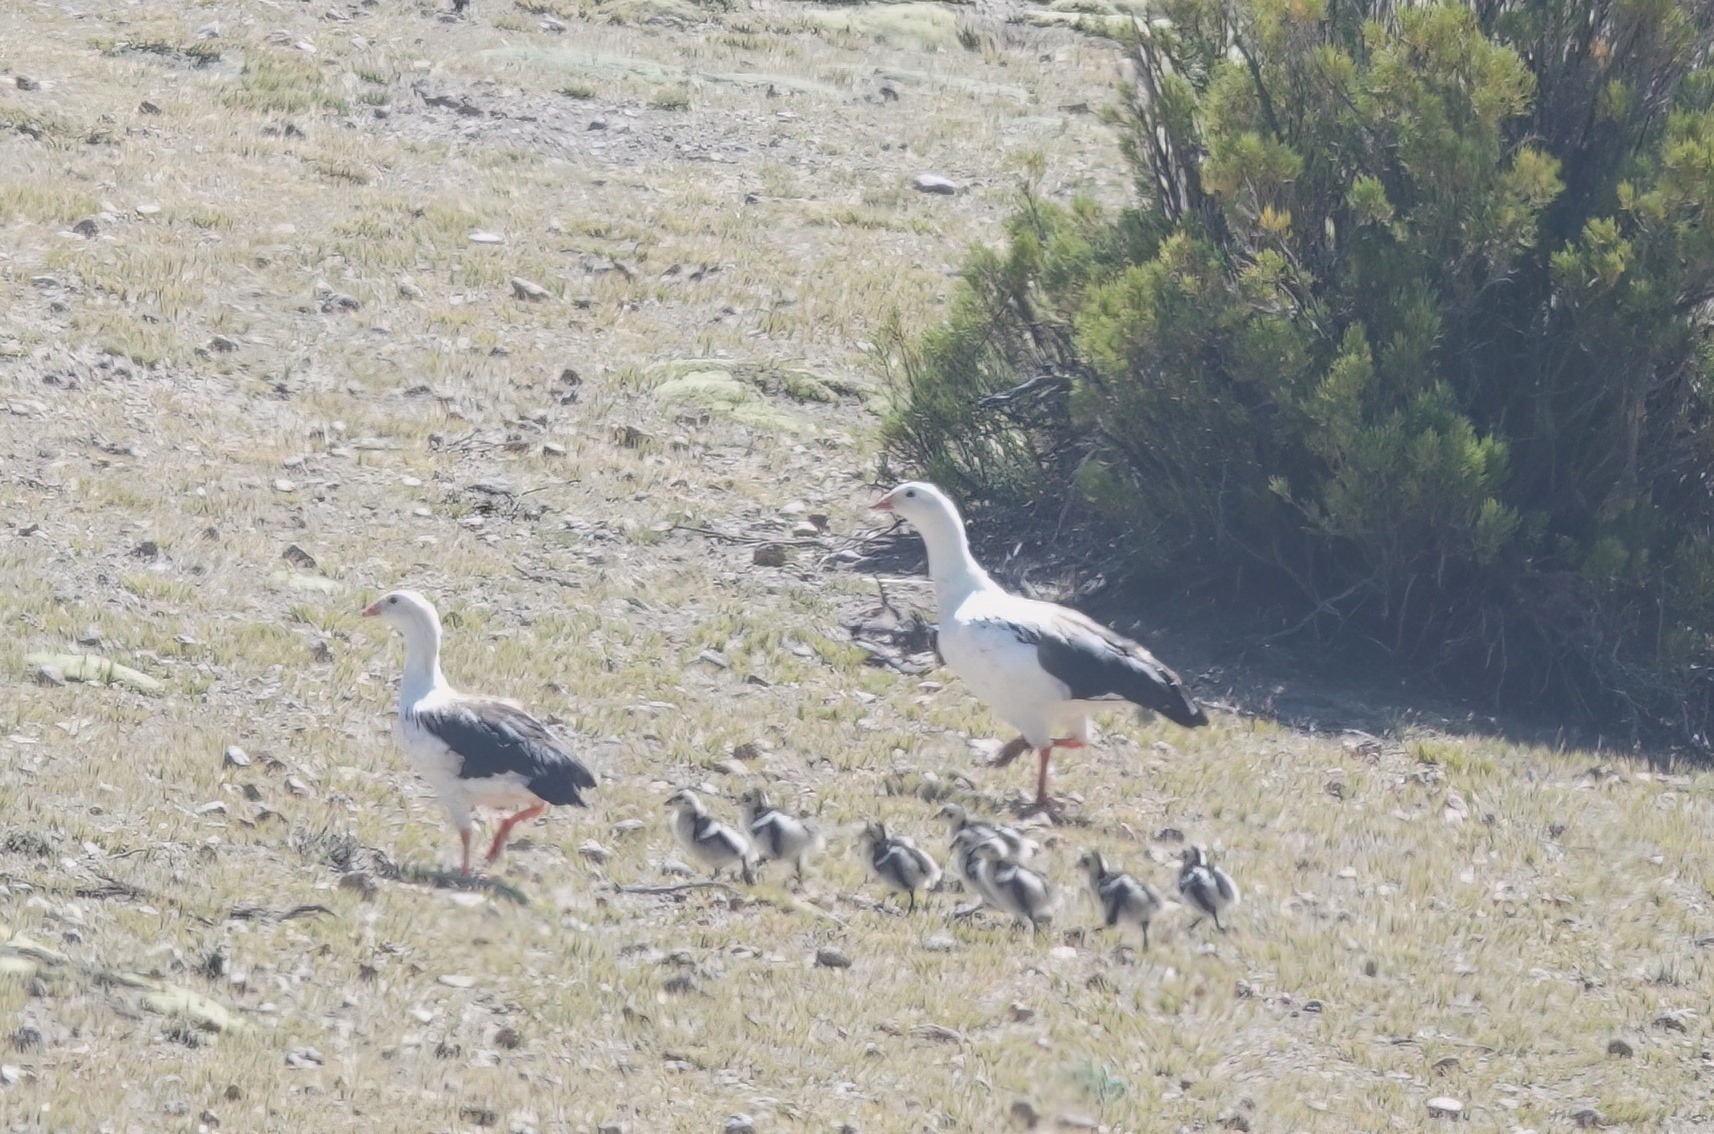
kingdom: Animalia
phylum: Chordata
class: Aves
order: Anseriformes
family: Anatidae
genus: Chloephaga
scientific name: Chloephaga melanoptera
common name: Andean goose
